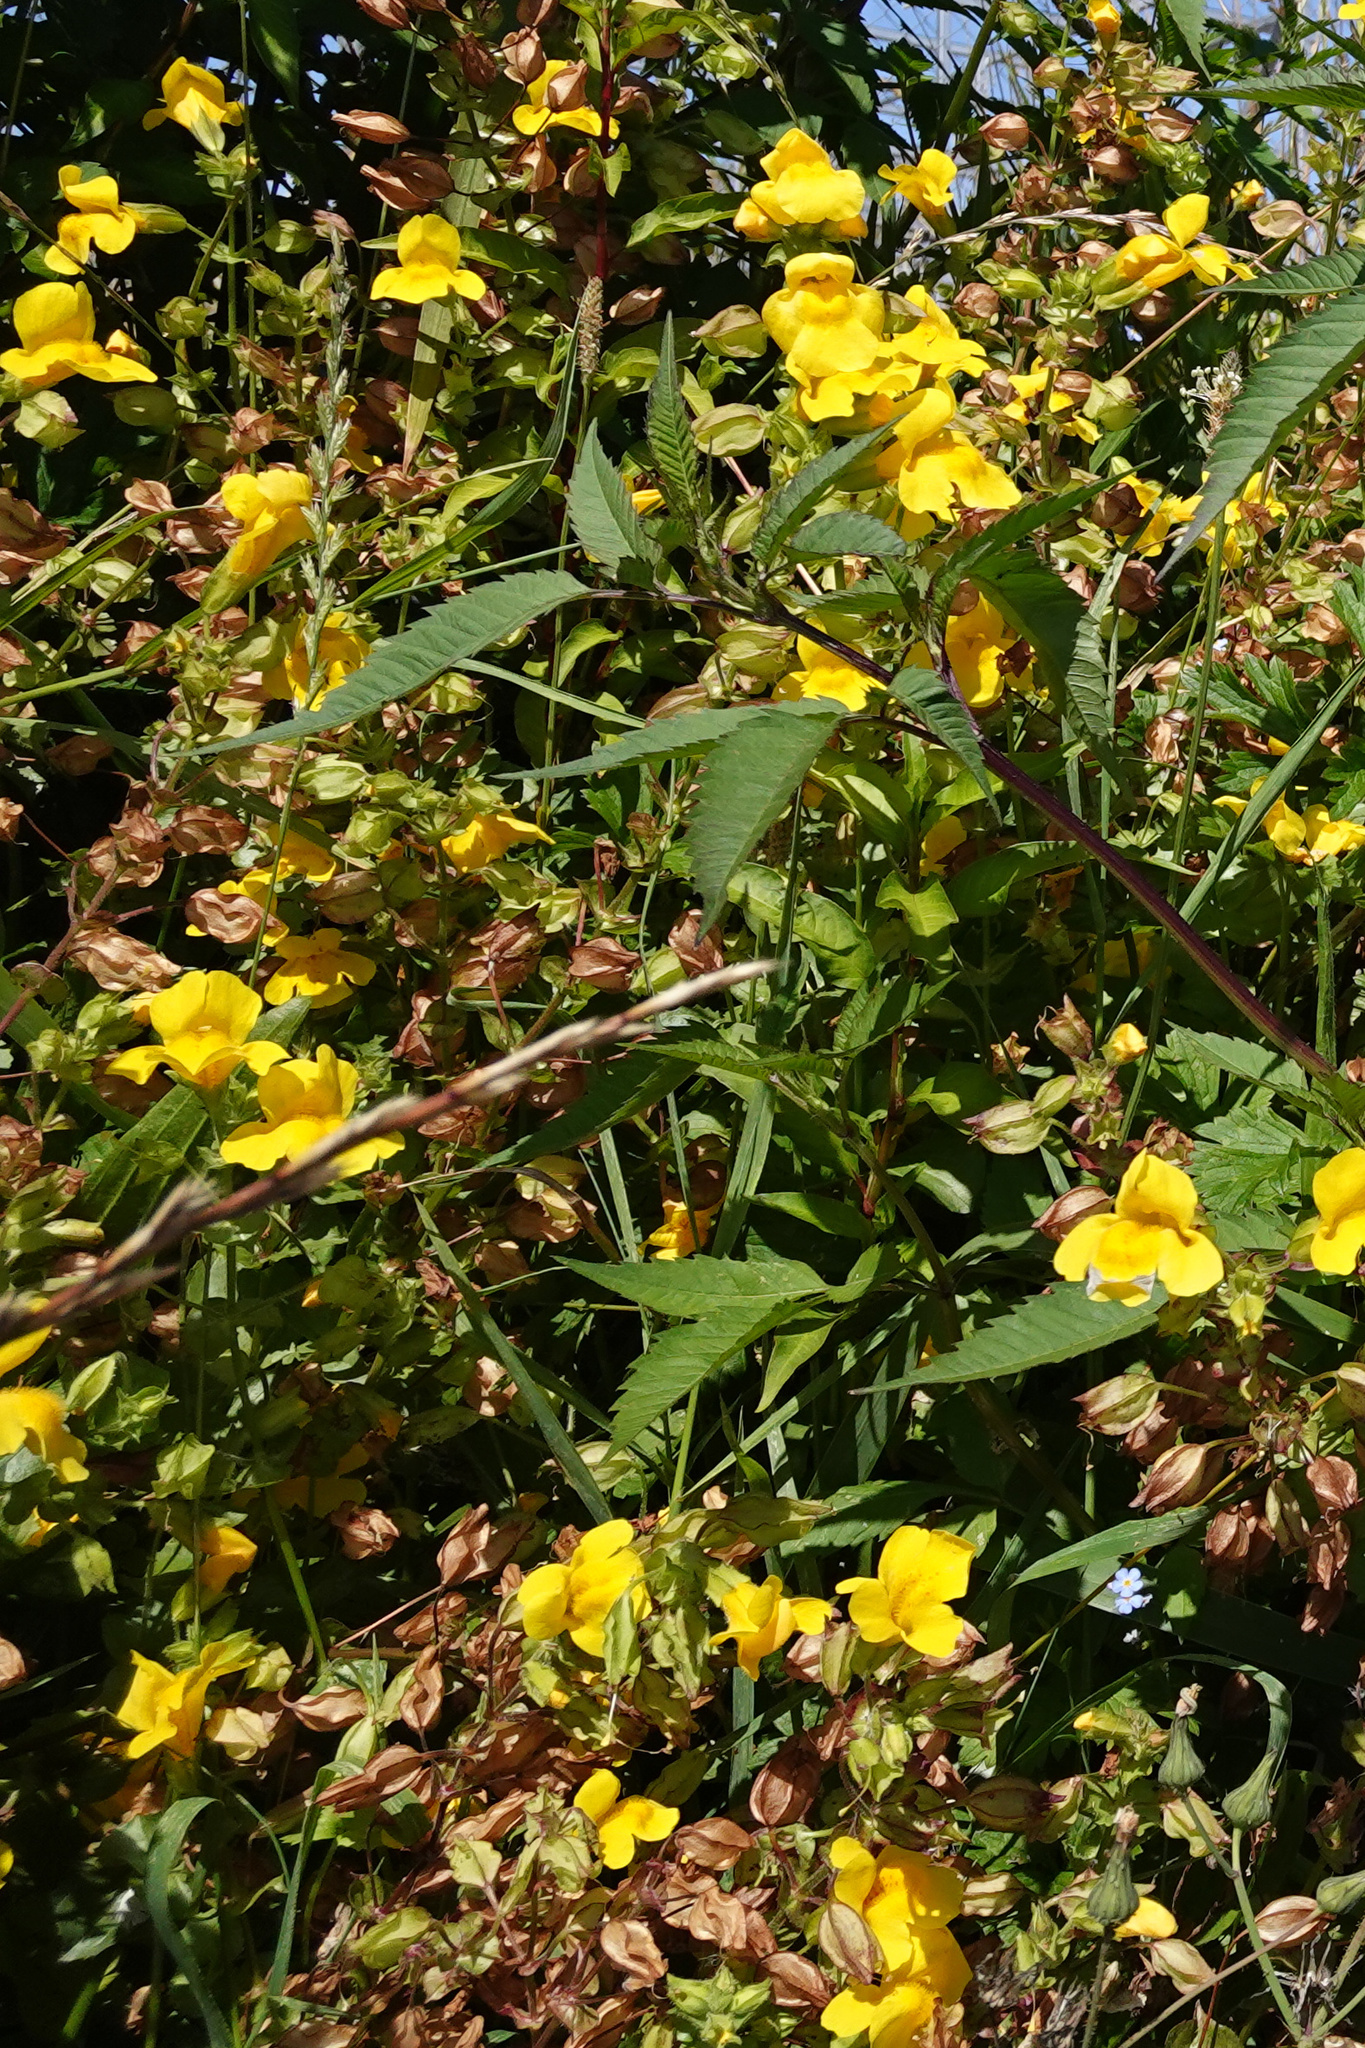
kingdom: Plantae
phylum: Tracheophyta
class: Magnoliopsida
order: Lamiales
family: Phrymaceae
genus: Erythranthe
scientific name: Erythranthe guttata
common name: Monkeyflower
